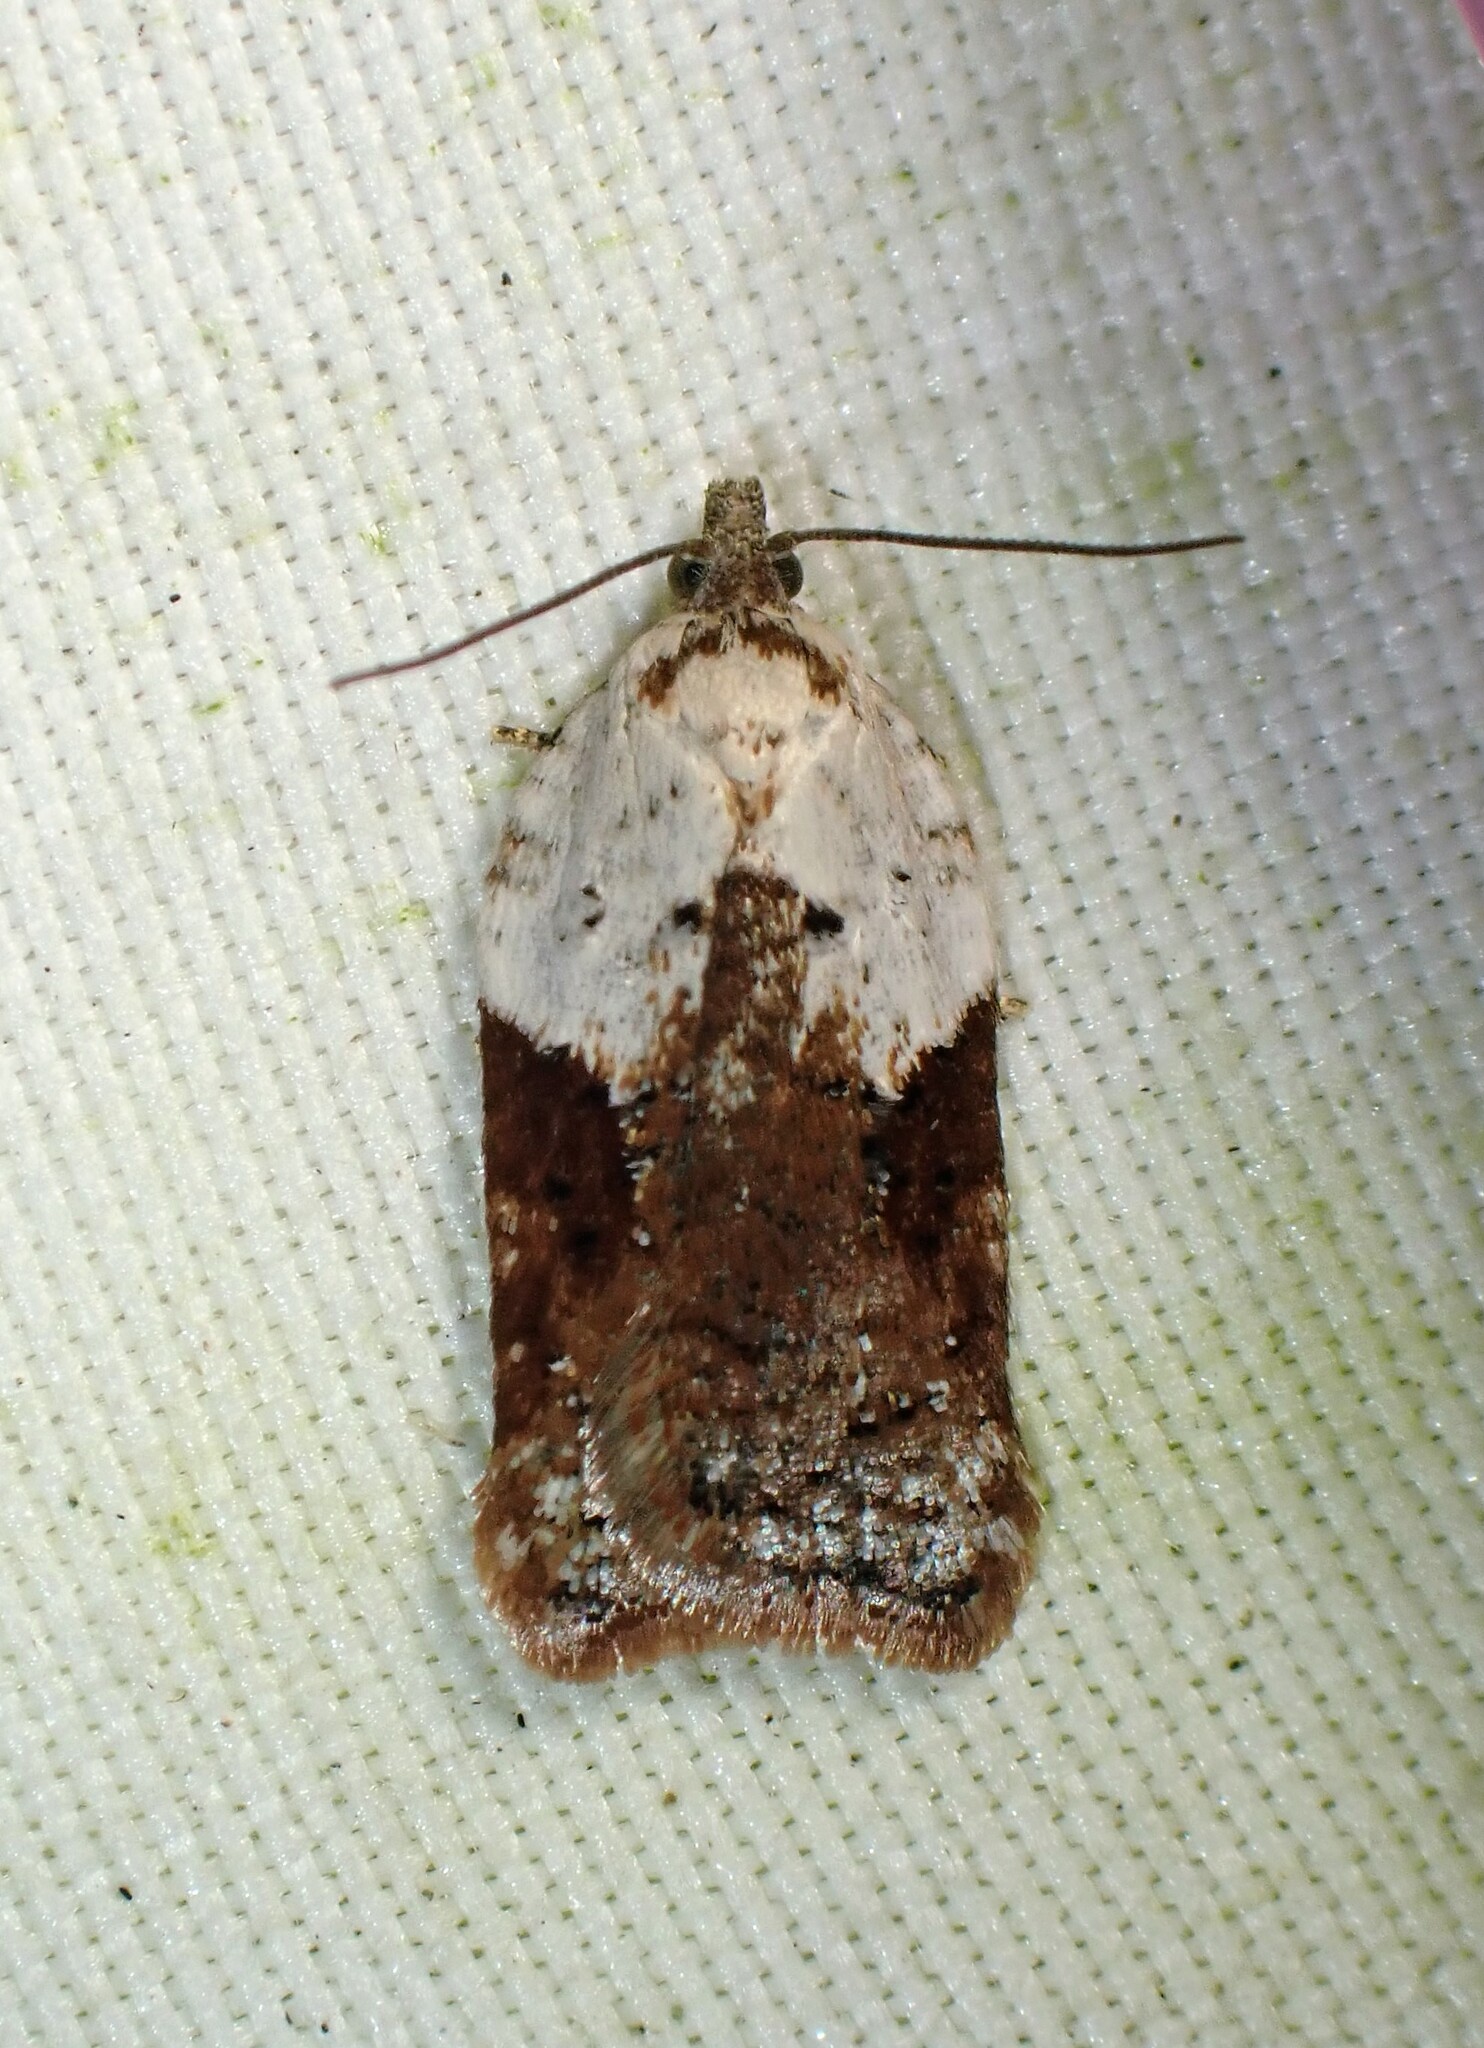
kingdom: Animalia
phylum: Arthropoda
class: Insecta
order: Lepidoptera
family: Tortricidae
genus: Acleris
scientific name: Acleris braunana
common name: Alder leafroller
